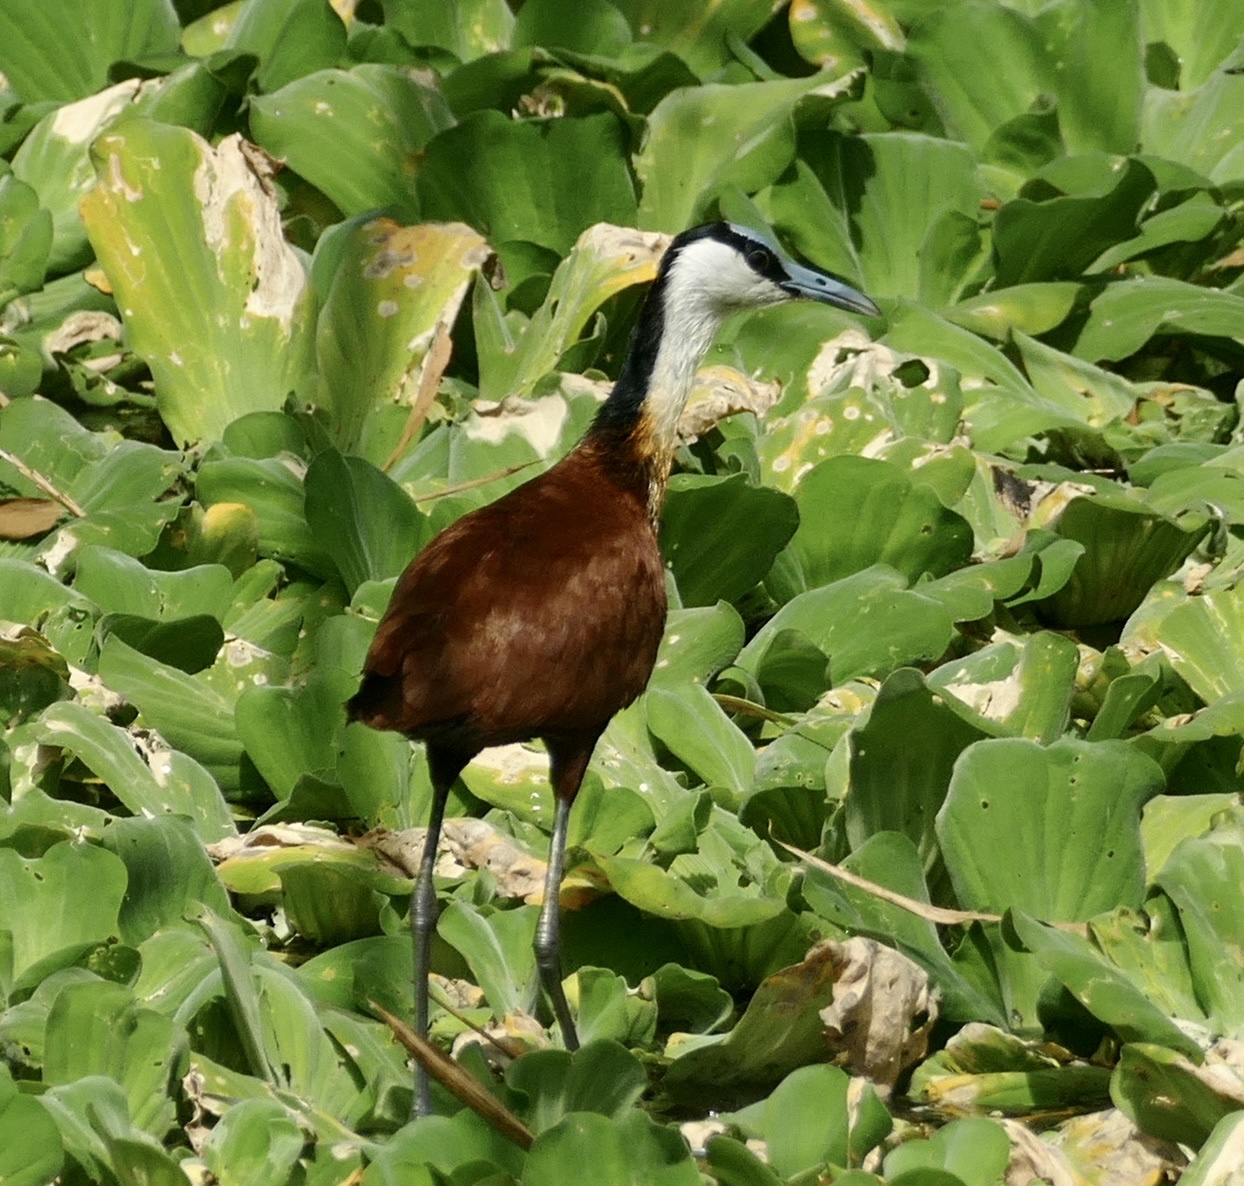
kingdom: Animalia
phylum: Chordata
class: Aves
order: Charadriiformes
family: Jacanidae
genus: Actophilornis
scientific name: Actophilornis africanus
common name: African jacana
